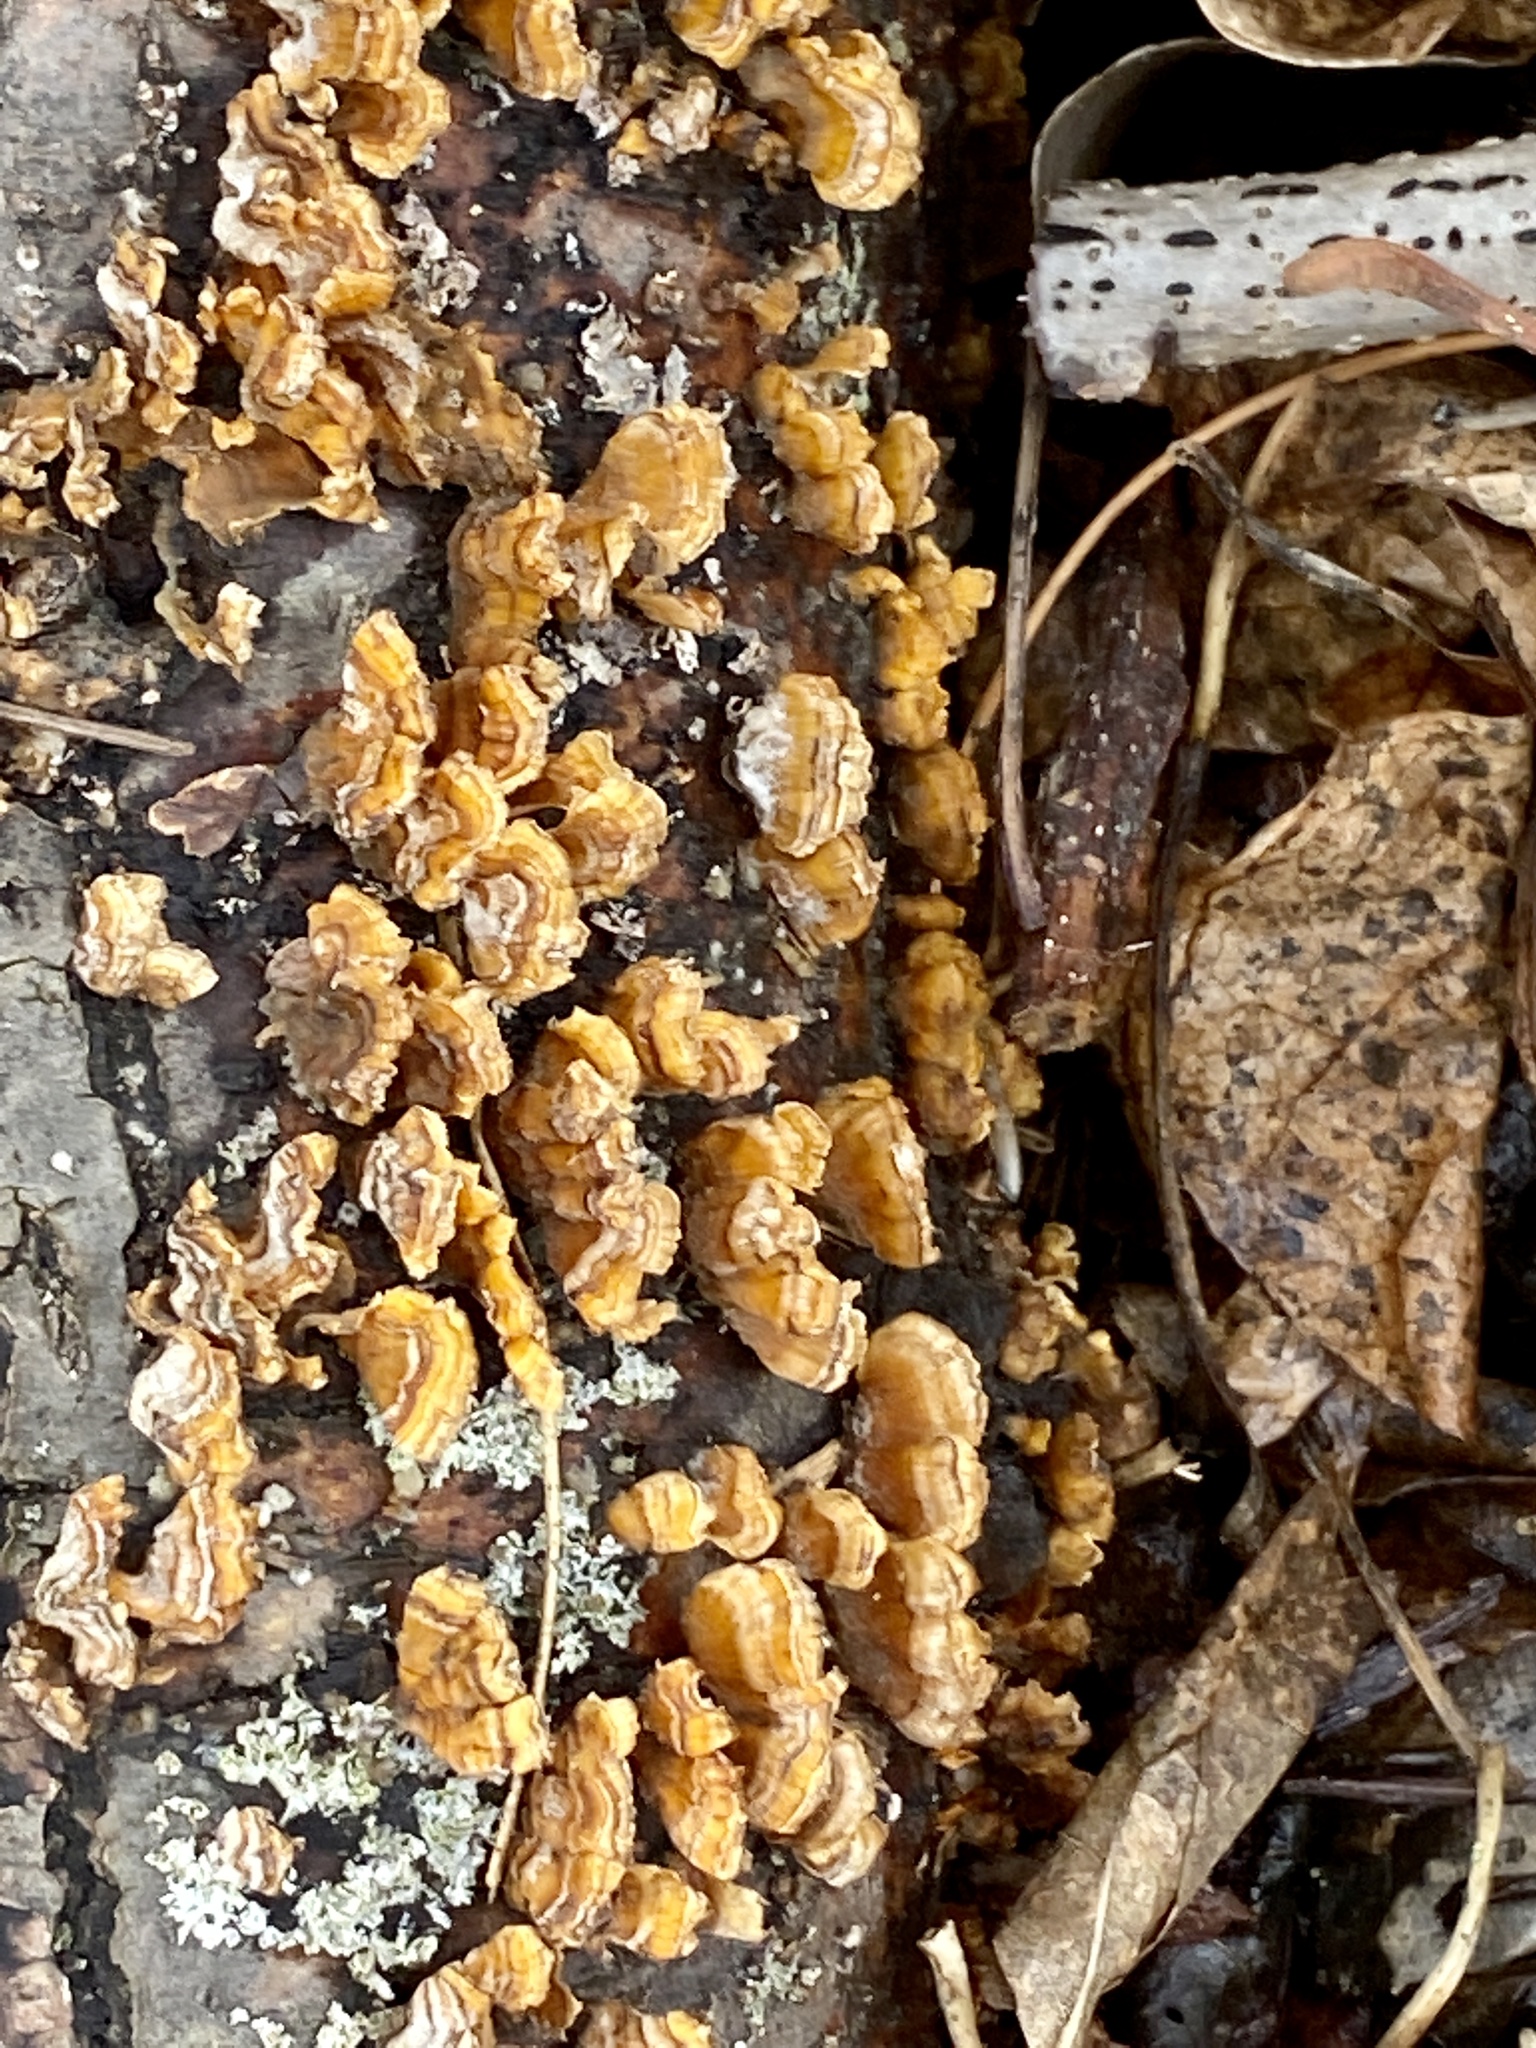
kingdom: Fungi
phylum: Basidiomycota
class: Agaricomycetes
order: Russulales
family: Stereaceae
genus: Stereum
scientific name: Stereum complicatum
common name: Crowded parchment
